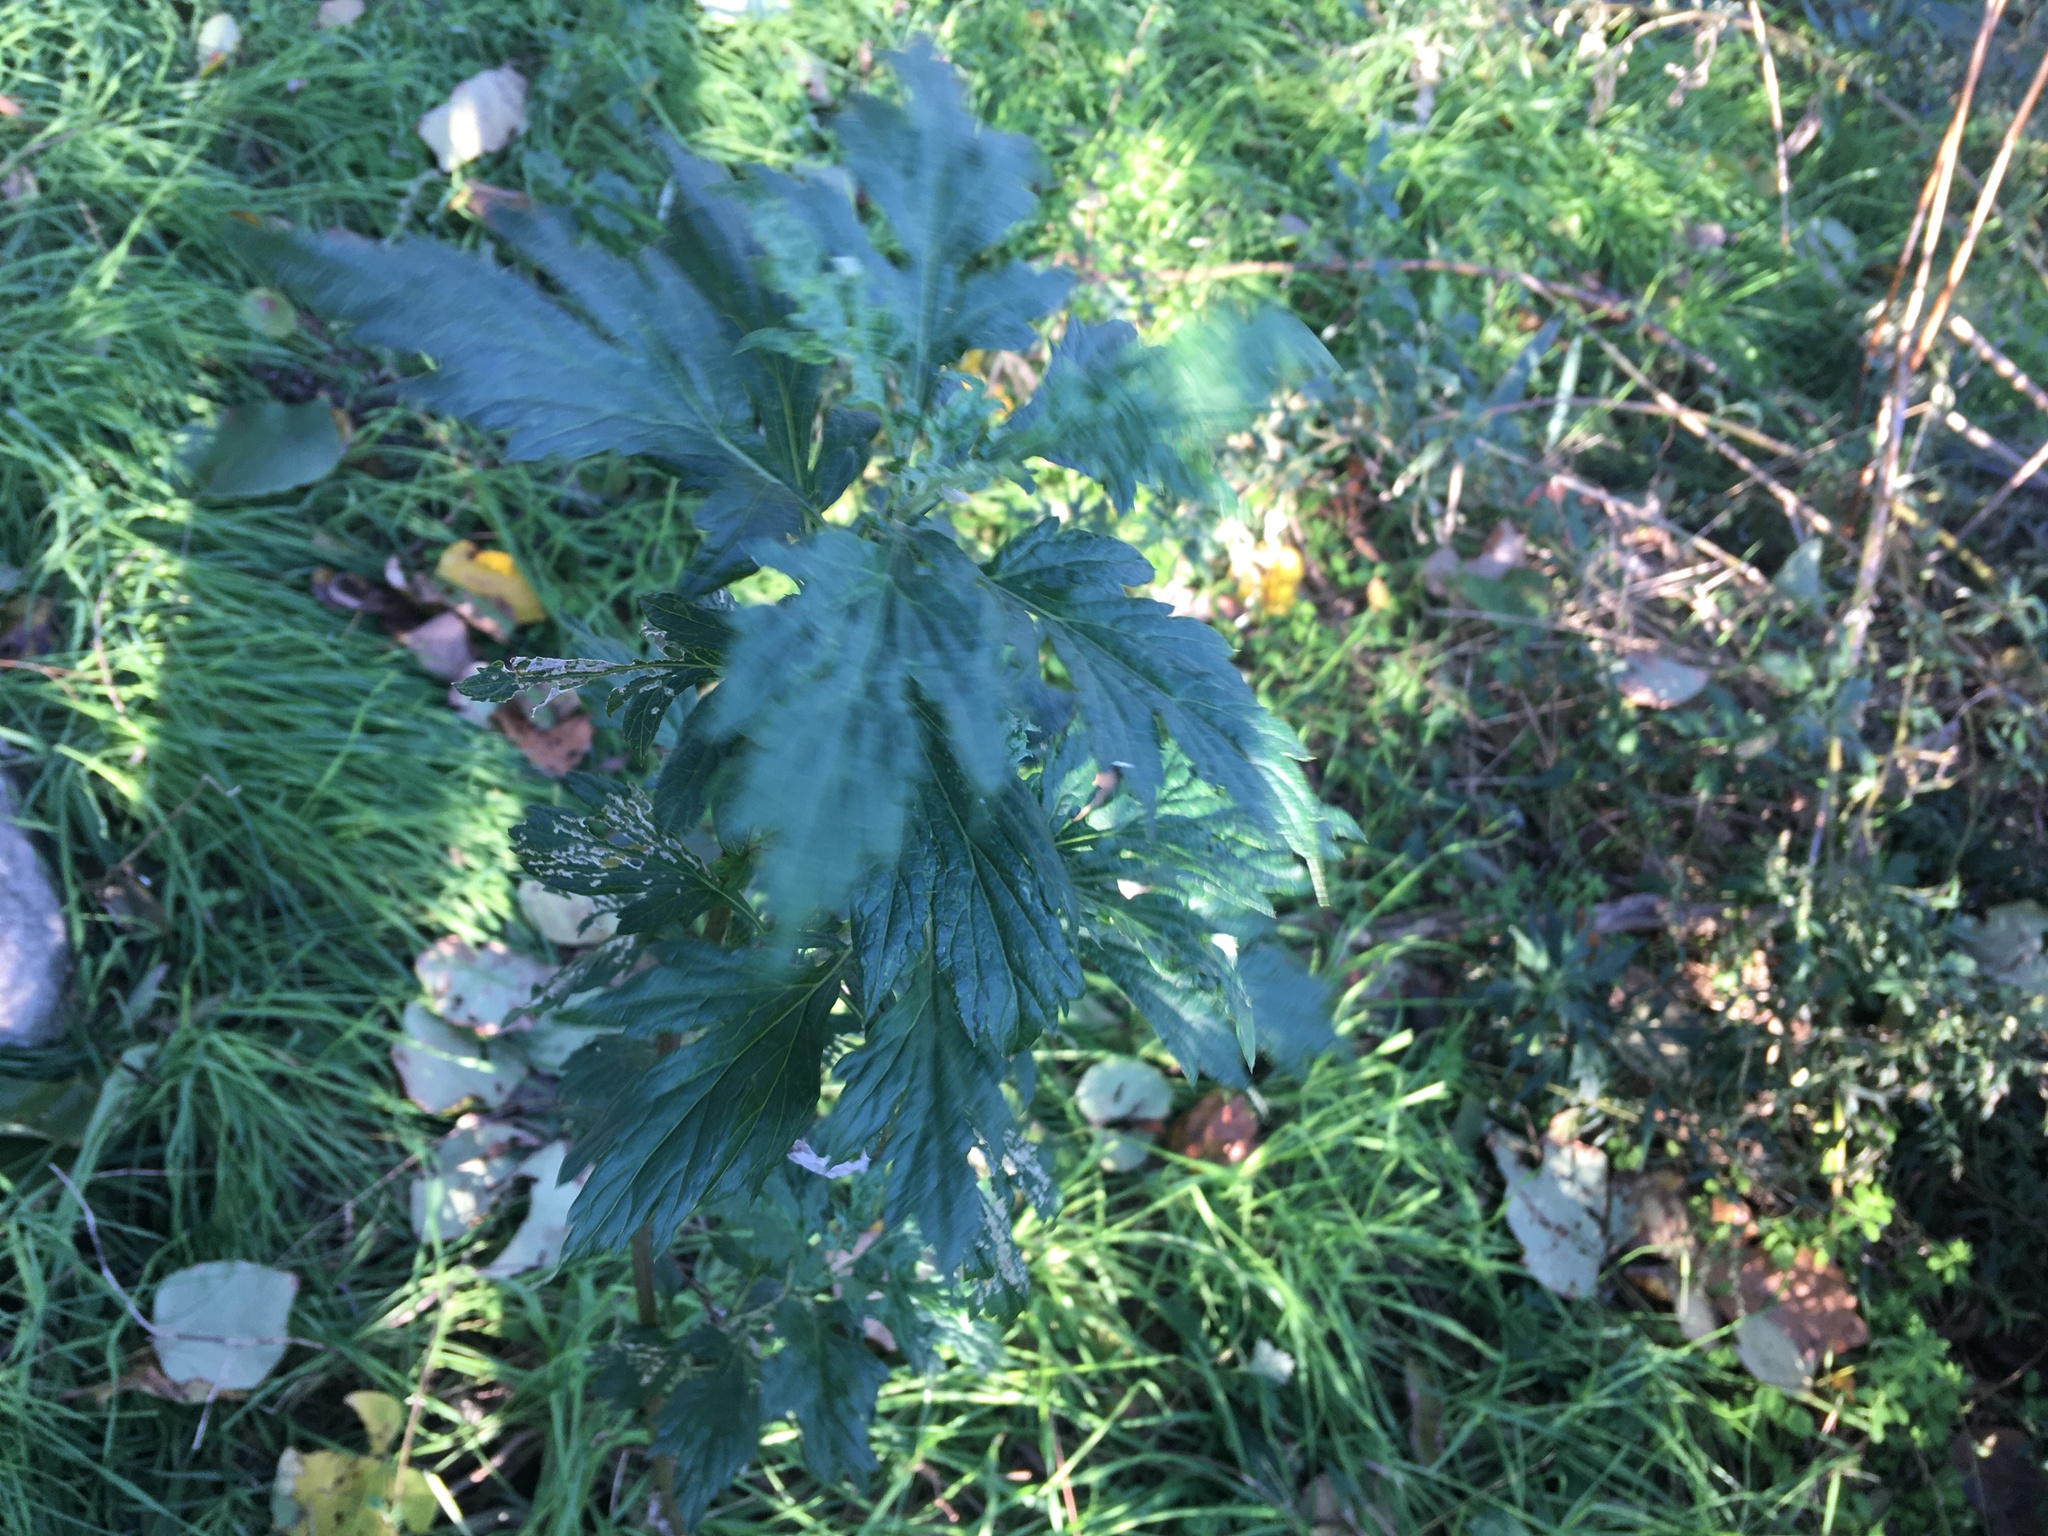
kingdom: Plantae
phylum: Tracheophyta
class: Magnoliopsida
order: Asterales
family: Asteraceae
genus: Artemisia
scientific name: Artemisia vulgaris
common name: Mugwort
